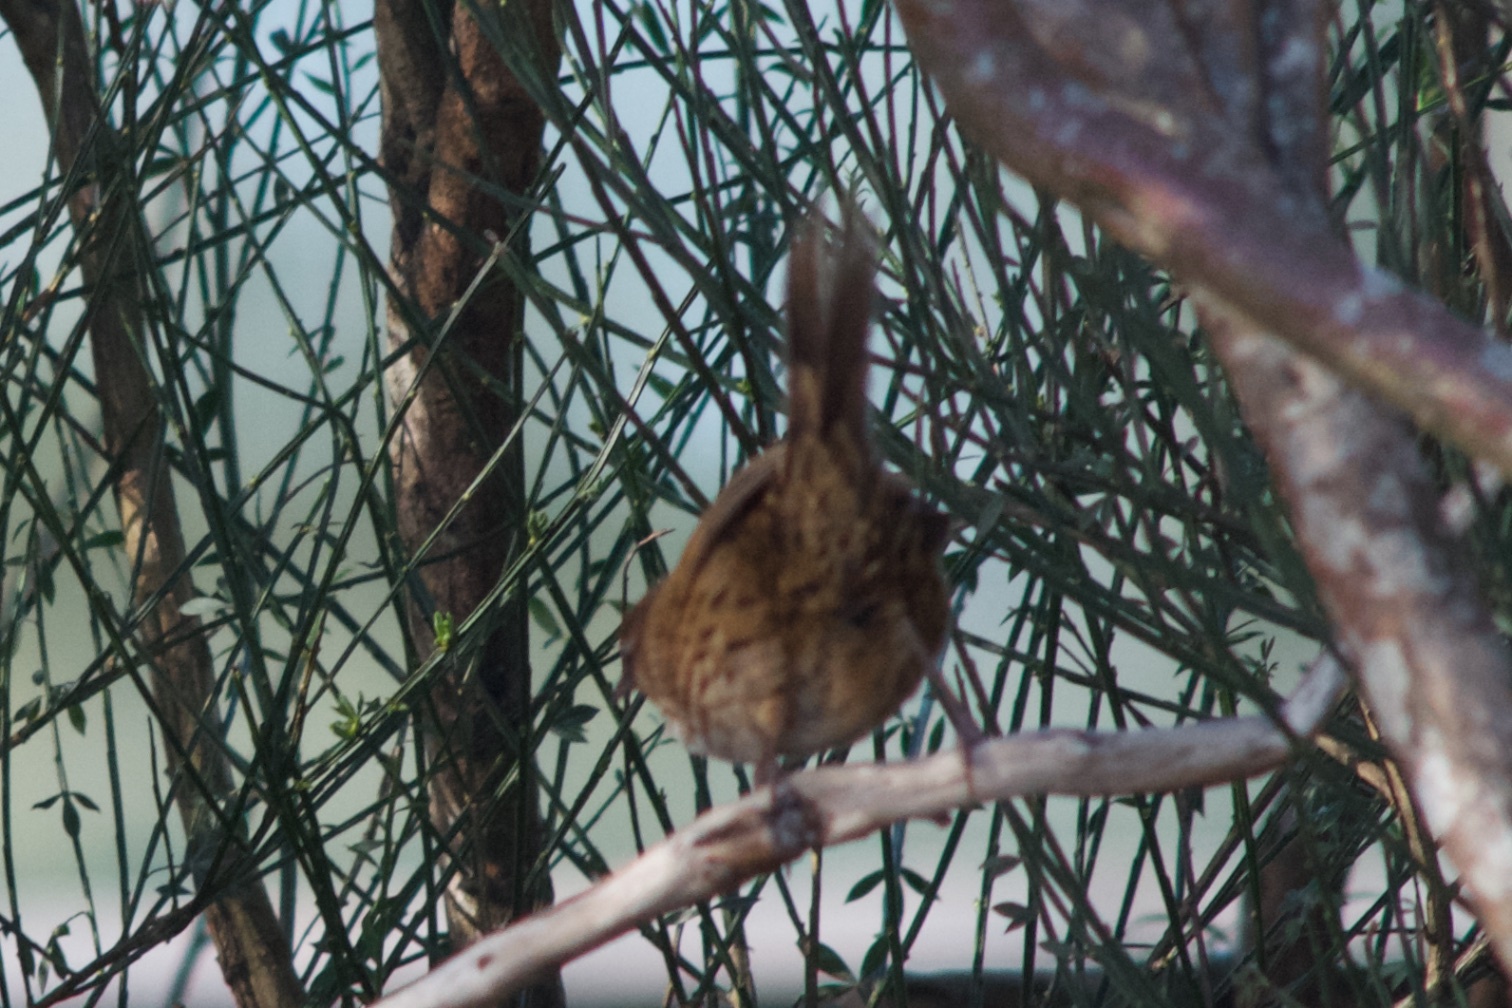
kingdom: Animalia
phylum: Chordata
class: Aves
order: Passeriformes
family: Locustellidae
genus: Poodytes
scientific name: Poodytes punctatus
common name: New zealand fernbird
